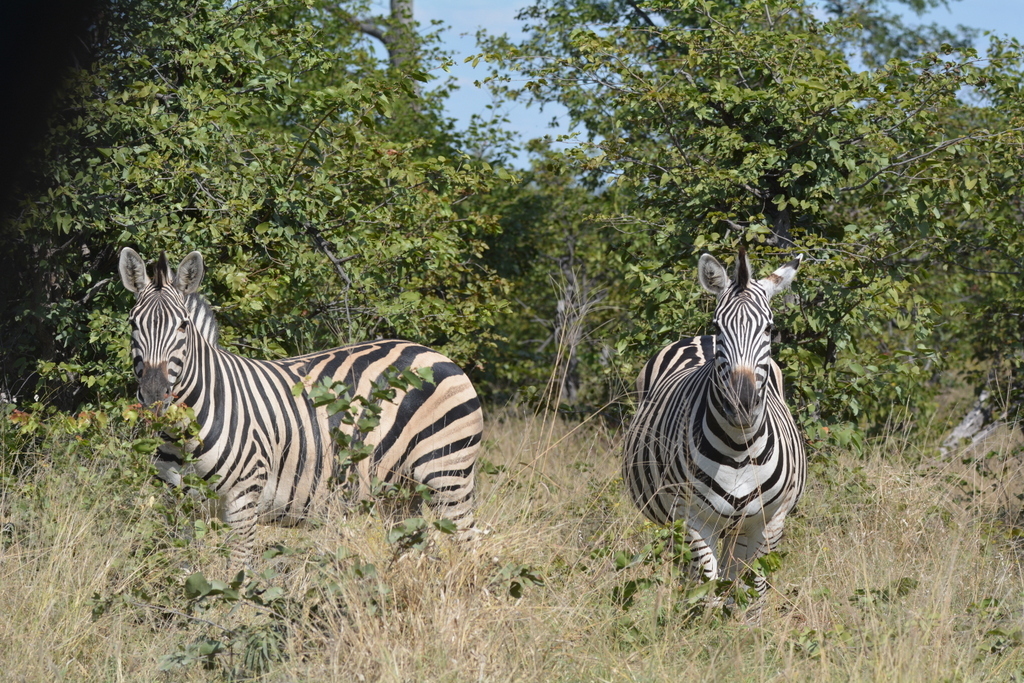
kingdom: Animalia
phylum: Chordata
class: Mammalia
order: Perissodactyla
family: Equidae
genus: Equus
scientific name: Equus quagga
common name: Plains zebra
